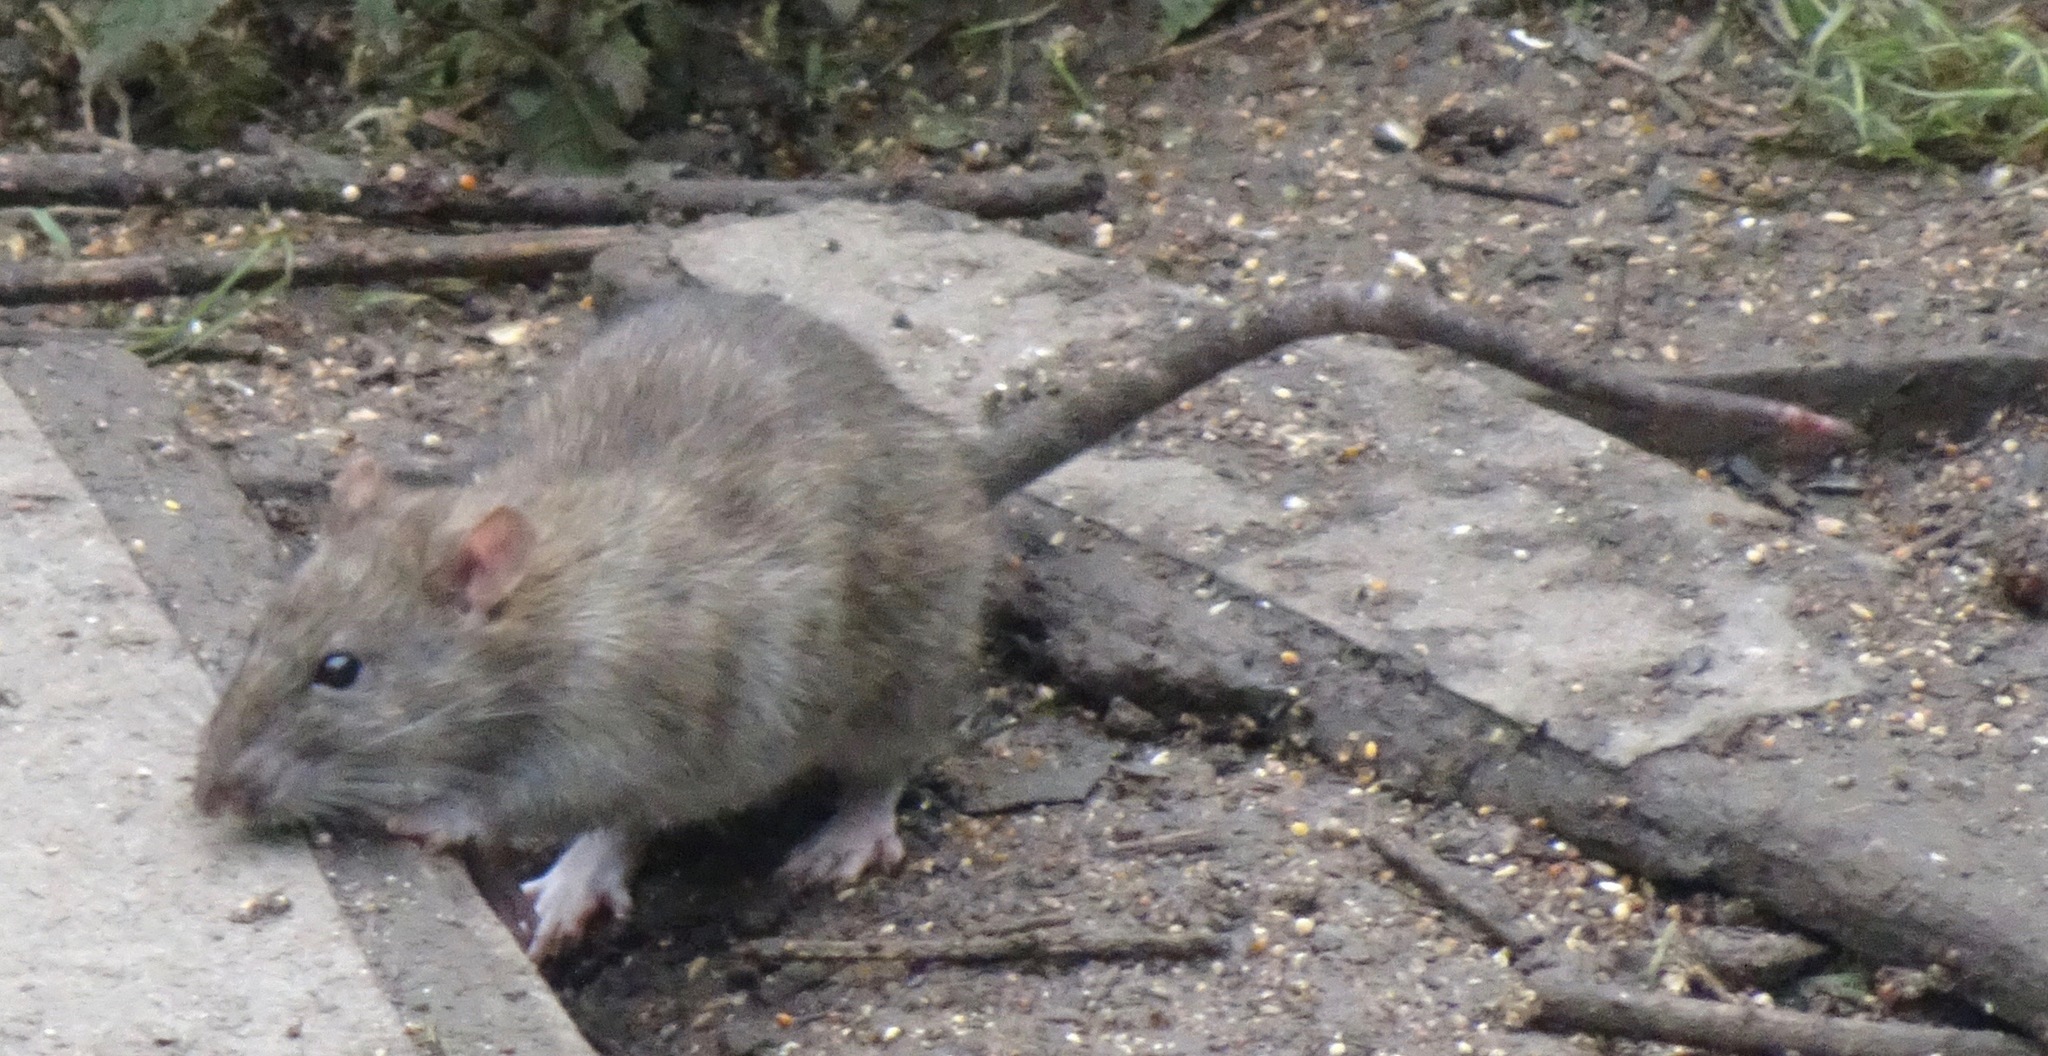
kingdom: Animalia
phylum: Chordata
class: Mammalia
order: Rodentia
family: Muridae
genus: Rattus
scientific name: Rattus norvegicus
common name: Brown rat
